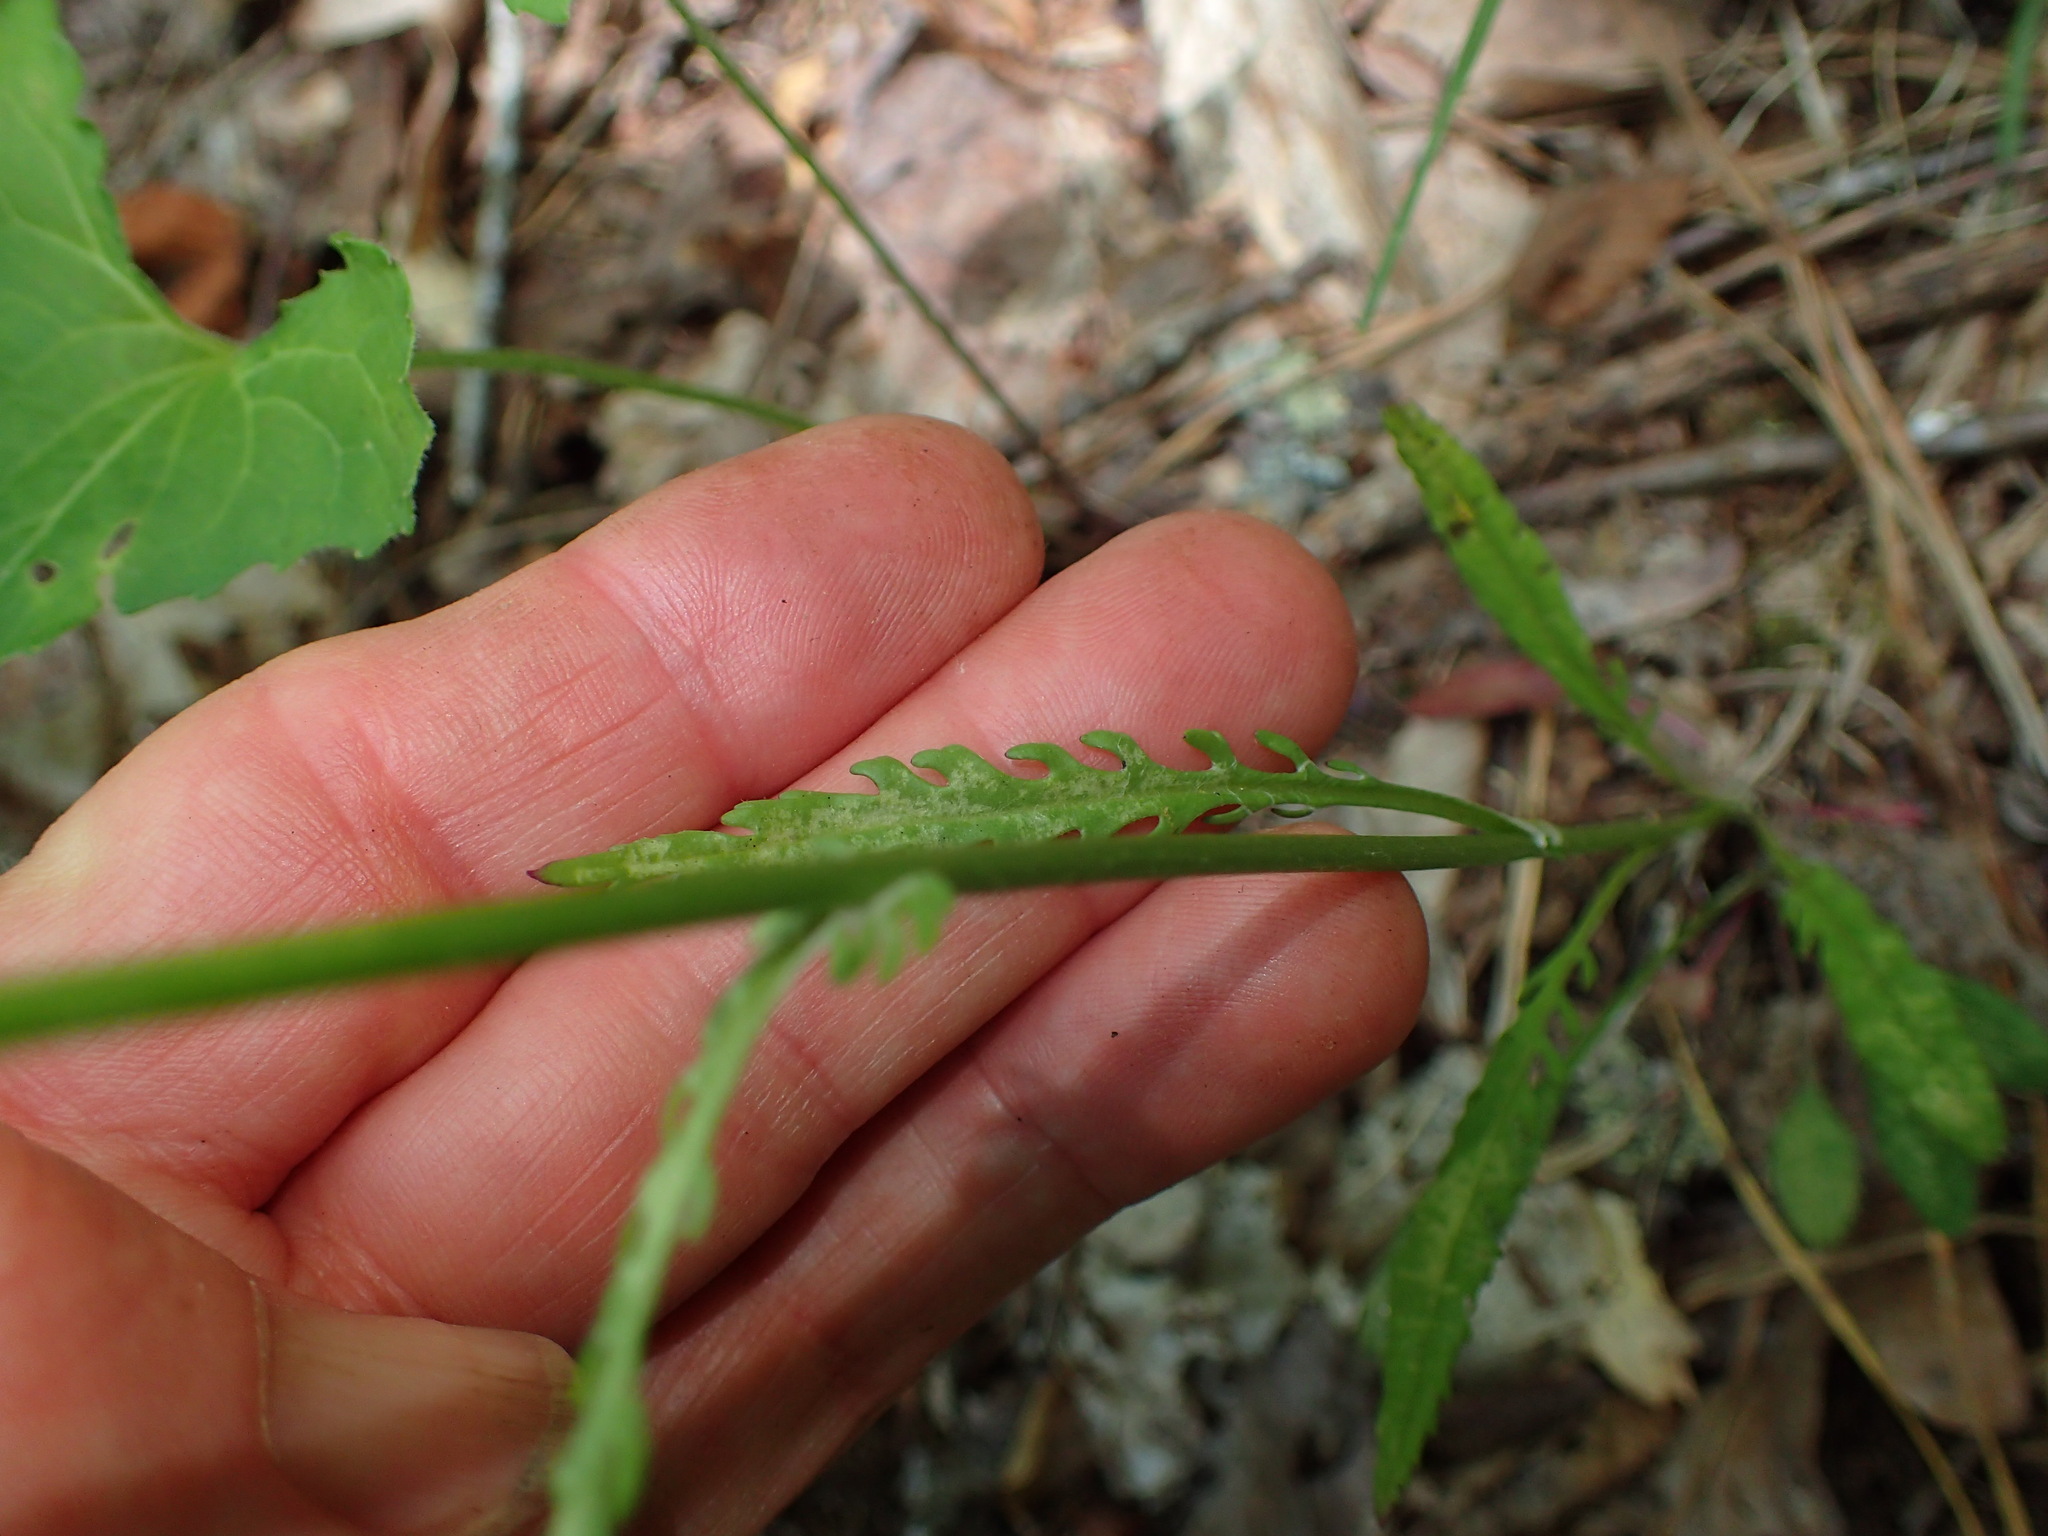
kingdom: Plantae
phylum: Tracheophyta
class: Magnoliopsida
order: Asterales
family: Asteraceae
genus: Packera
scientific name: Packera anonyma
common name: Small ragwort
